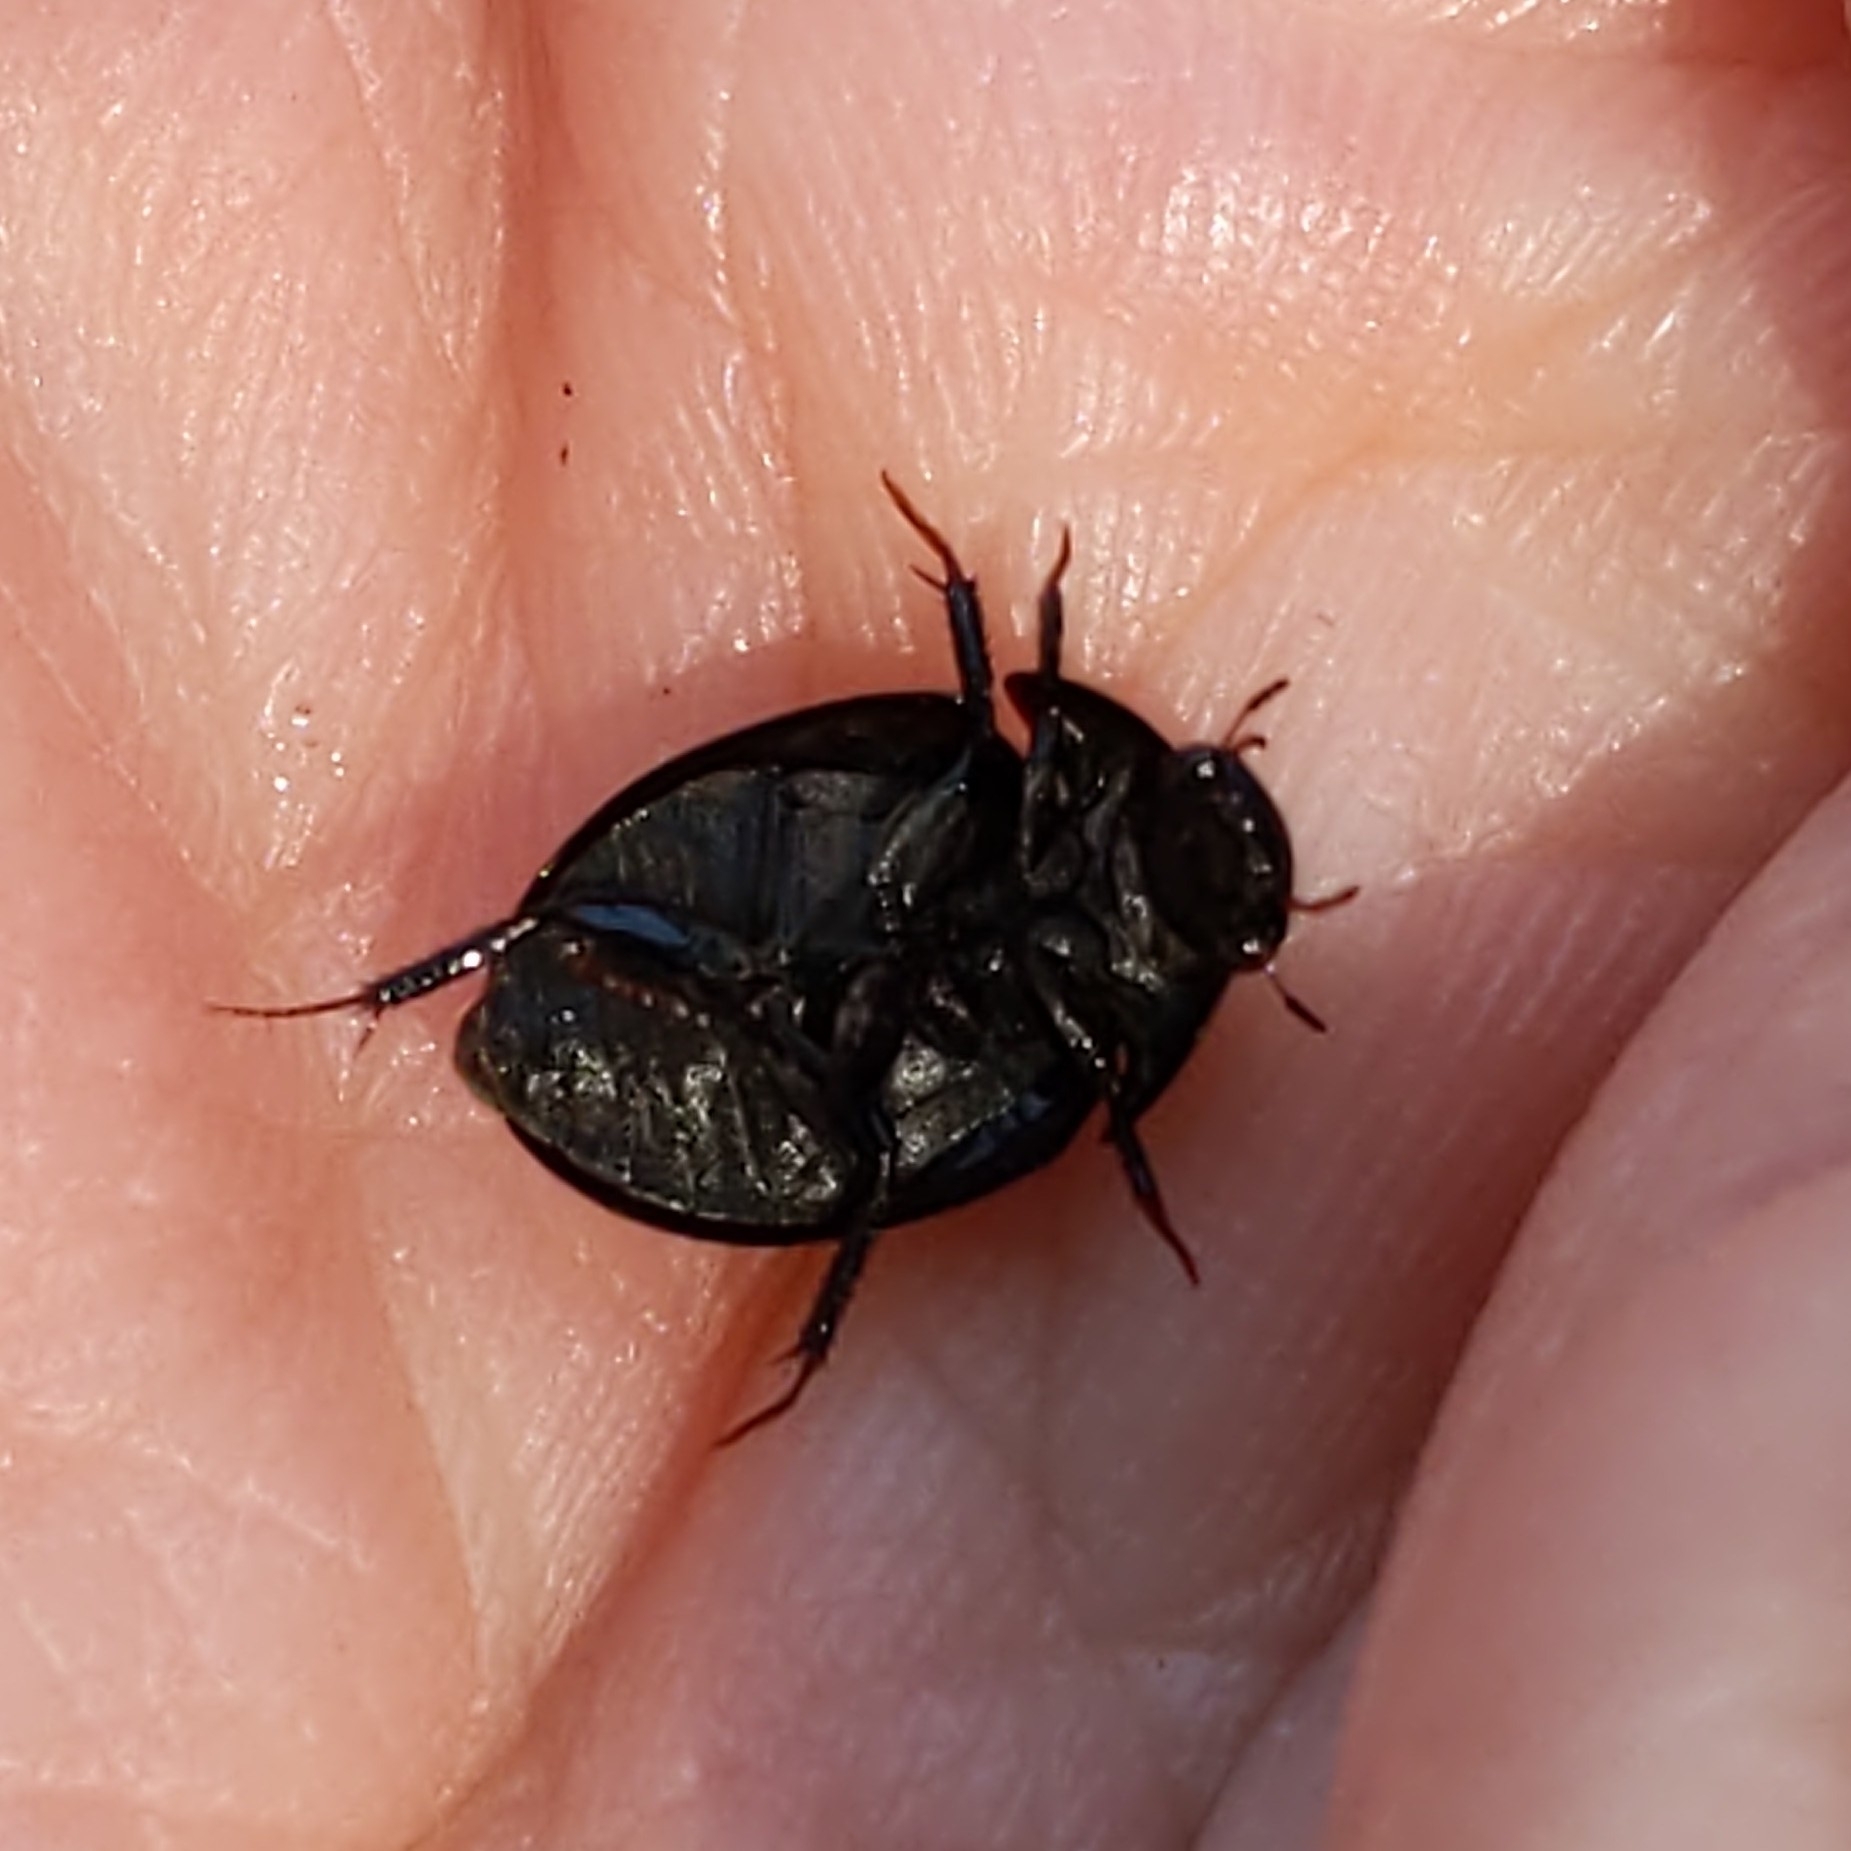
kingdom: Animalia
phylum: Arthropoda
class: Insecta
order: Coleoptera
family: Hydrophilidae
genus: Limnohydrobius
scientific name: Limnohydrobius
